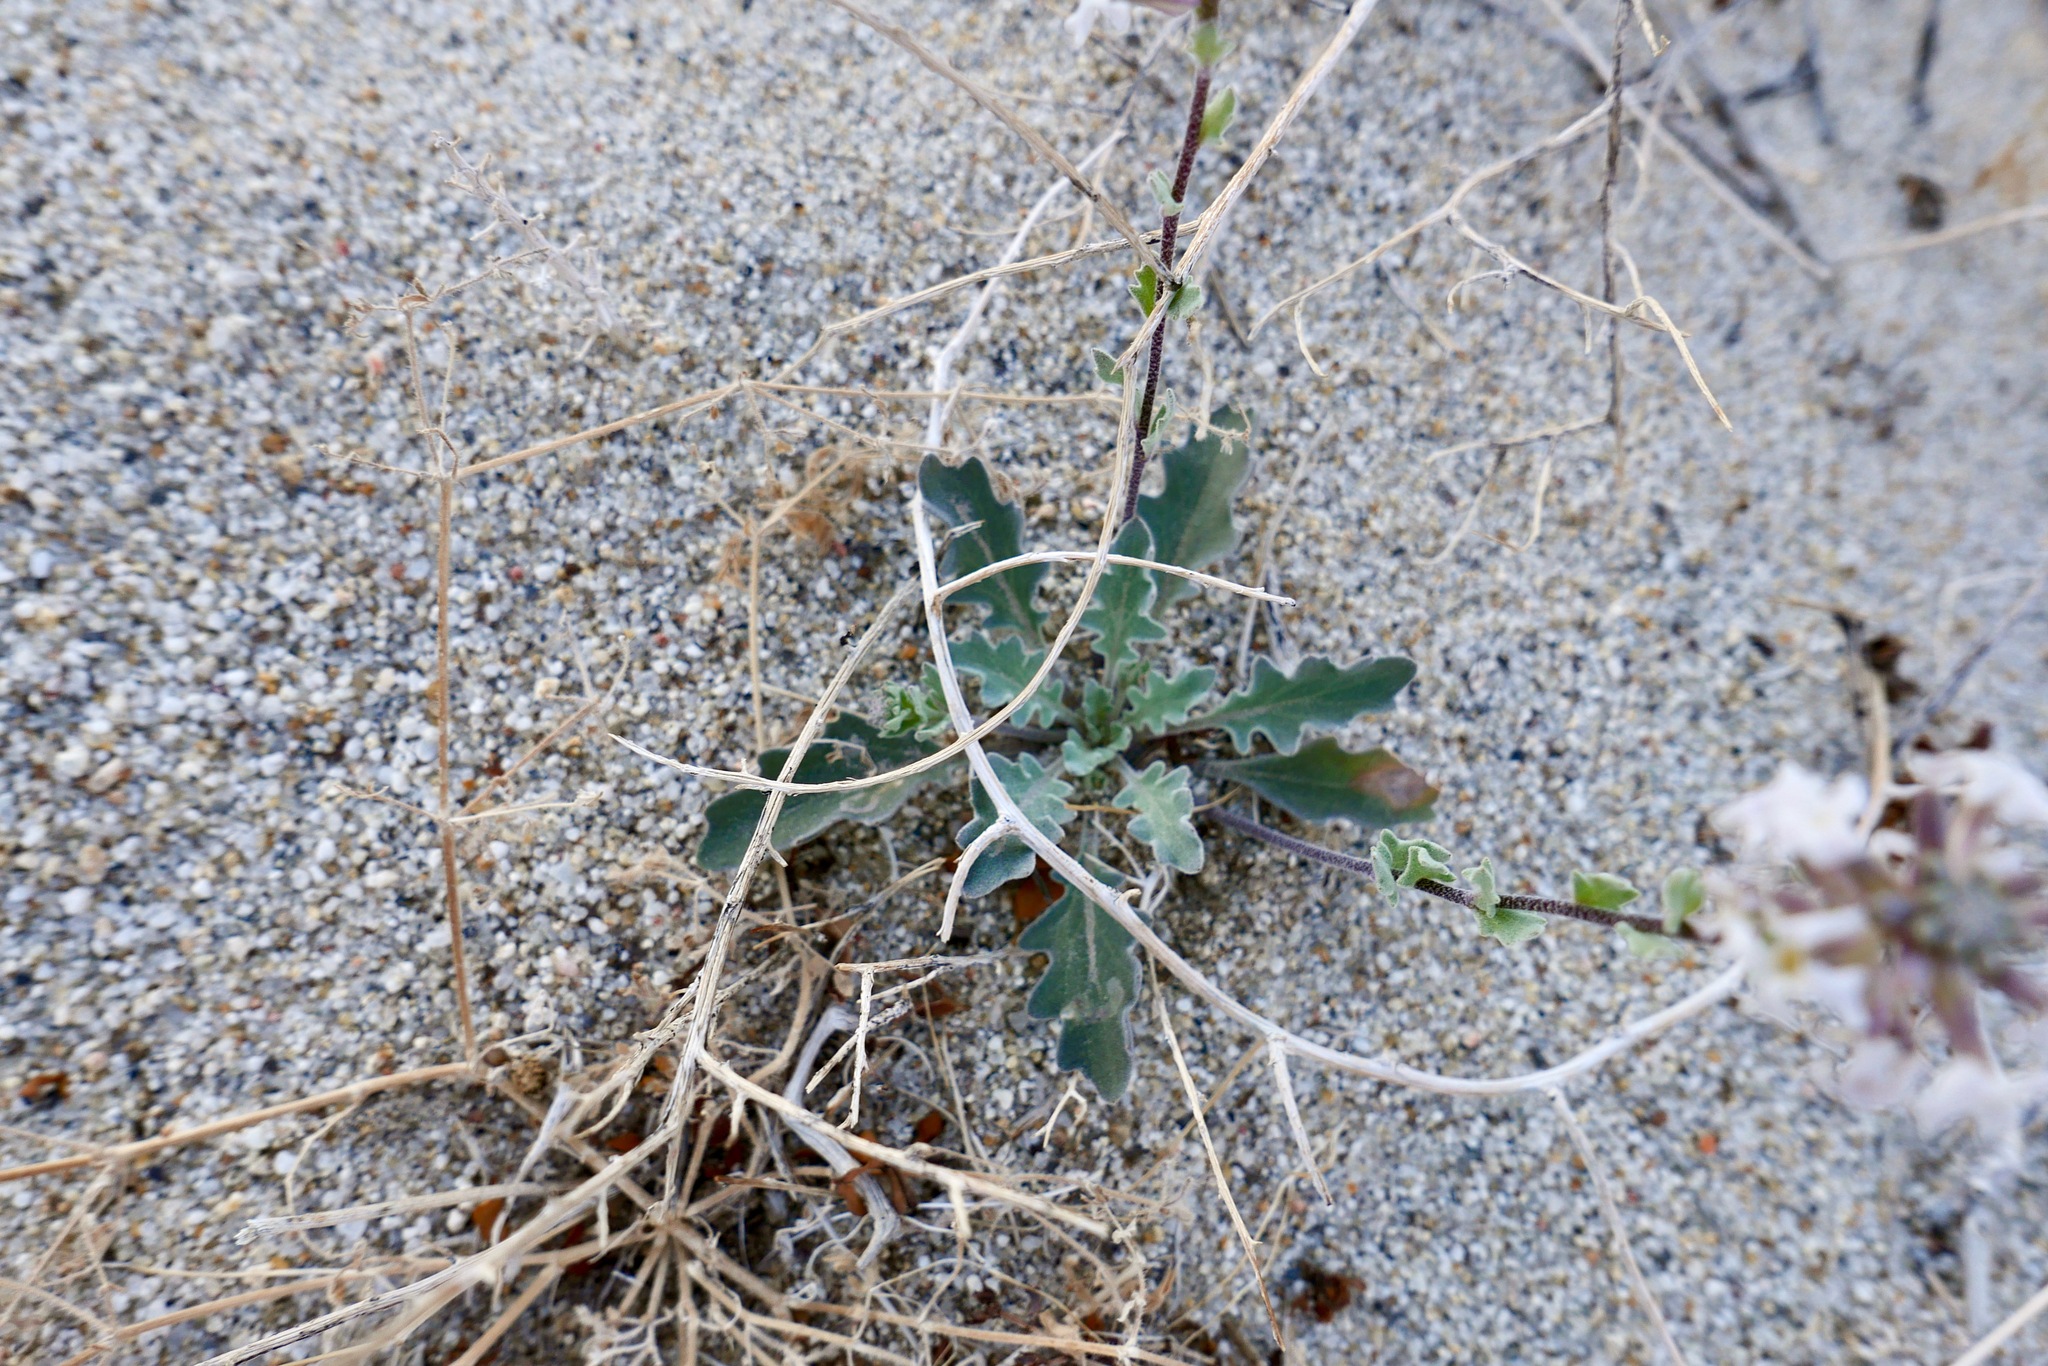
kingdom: Plantae
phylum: Tracheophyta
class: Magnoliopsida
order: Brassicales
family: Brassicaceae
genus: Dithyrea
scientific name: Dithyrea californica
